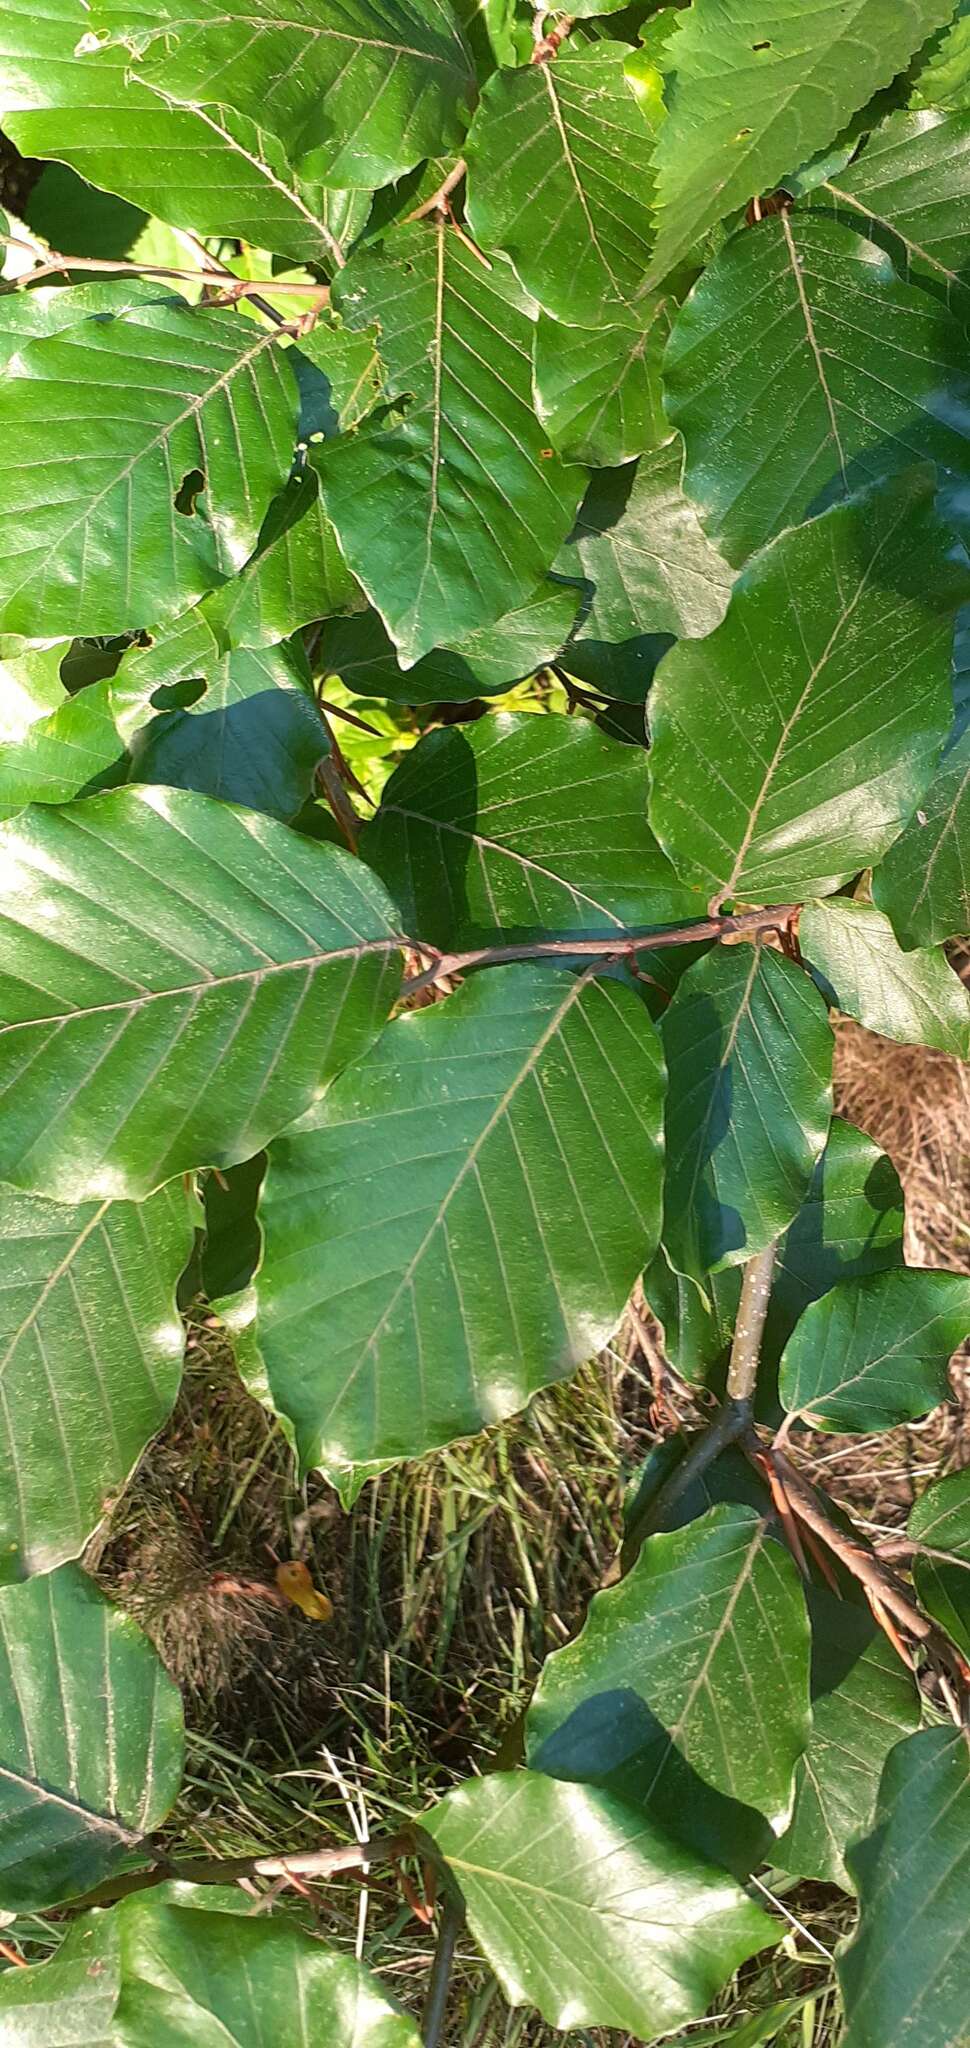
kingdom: Plantae
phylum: Tracheophyta
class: Magnoliopsida
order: Fagales
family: Fagaceae
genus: Fagus
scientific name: Fagus sylvatica
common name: Beech
